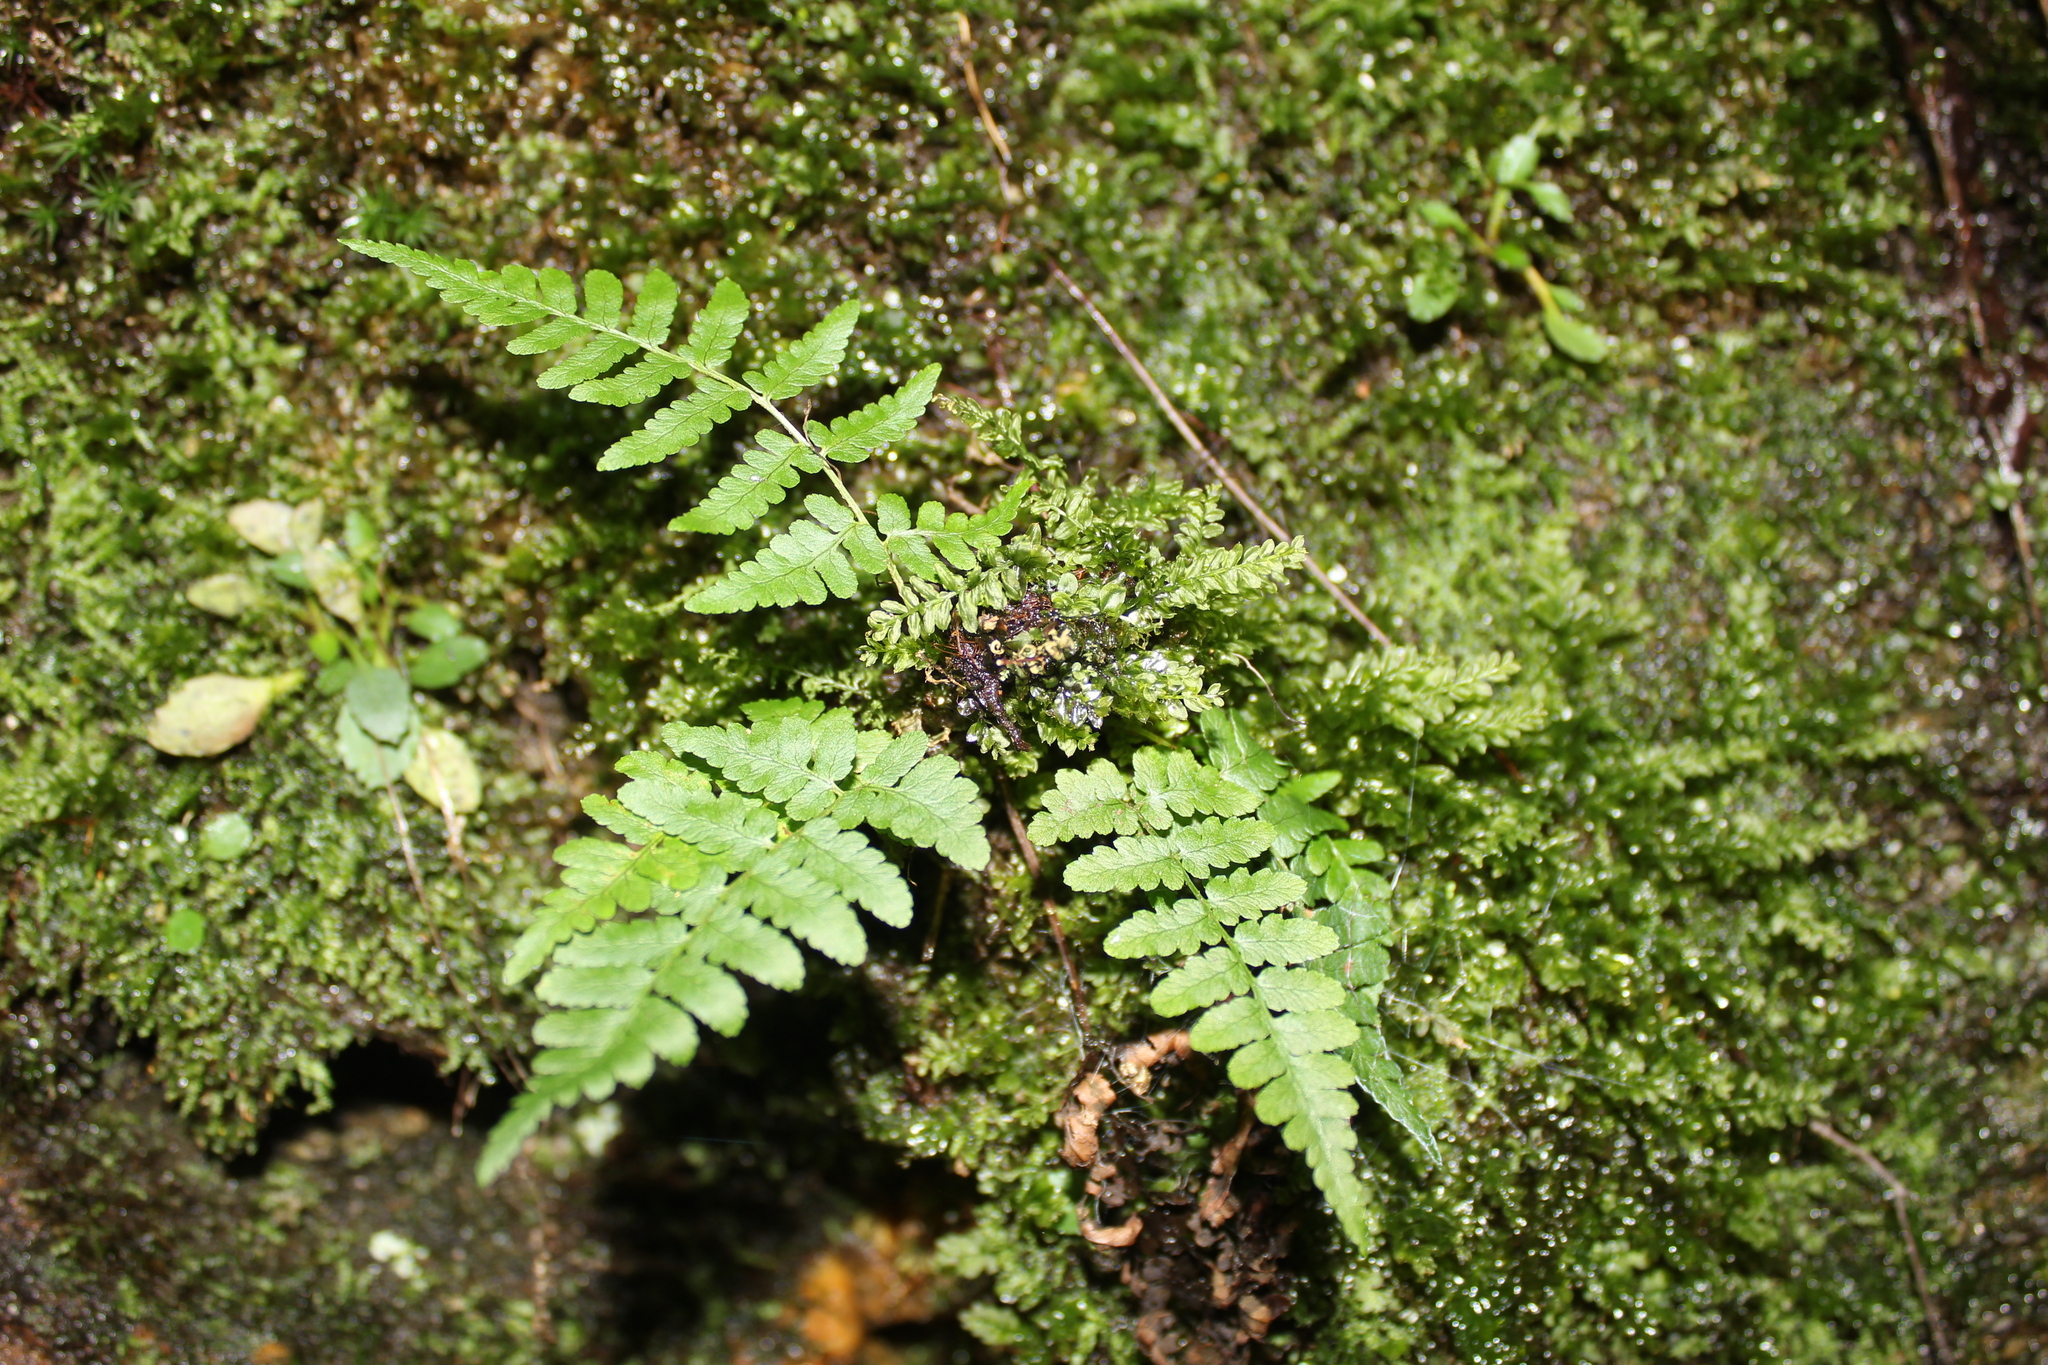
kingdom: Plantae
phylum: Tracheophyta
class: Polypodiopsida
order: Polypodiales
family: Dryopteridaceae
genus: Dryopteris
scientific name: Dryopteris marginalis
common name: Marginal wood fern
